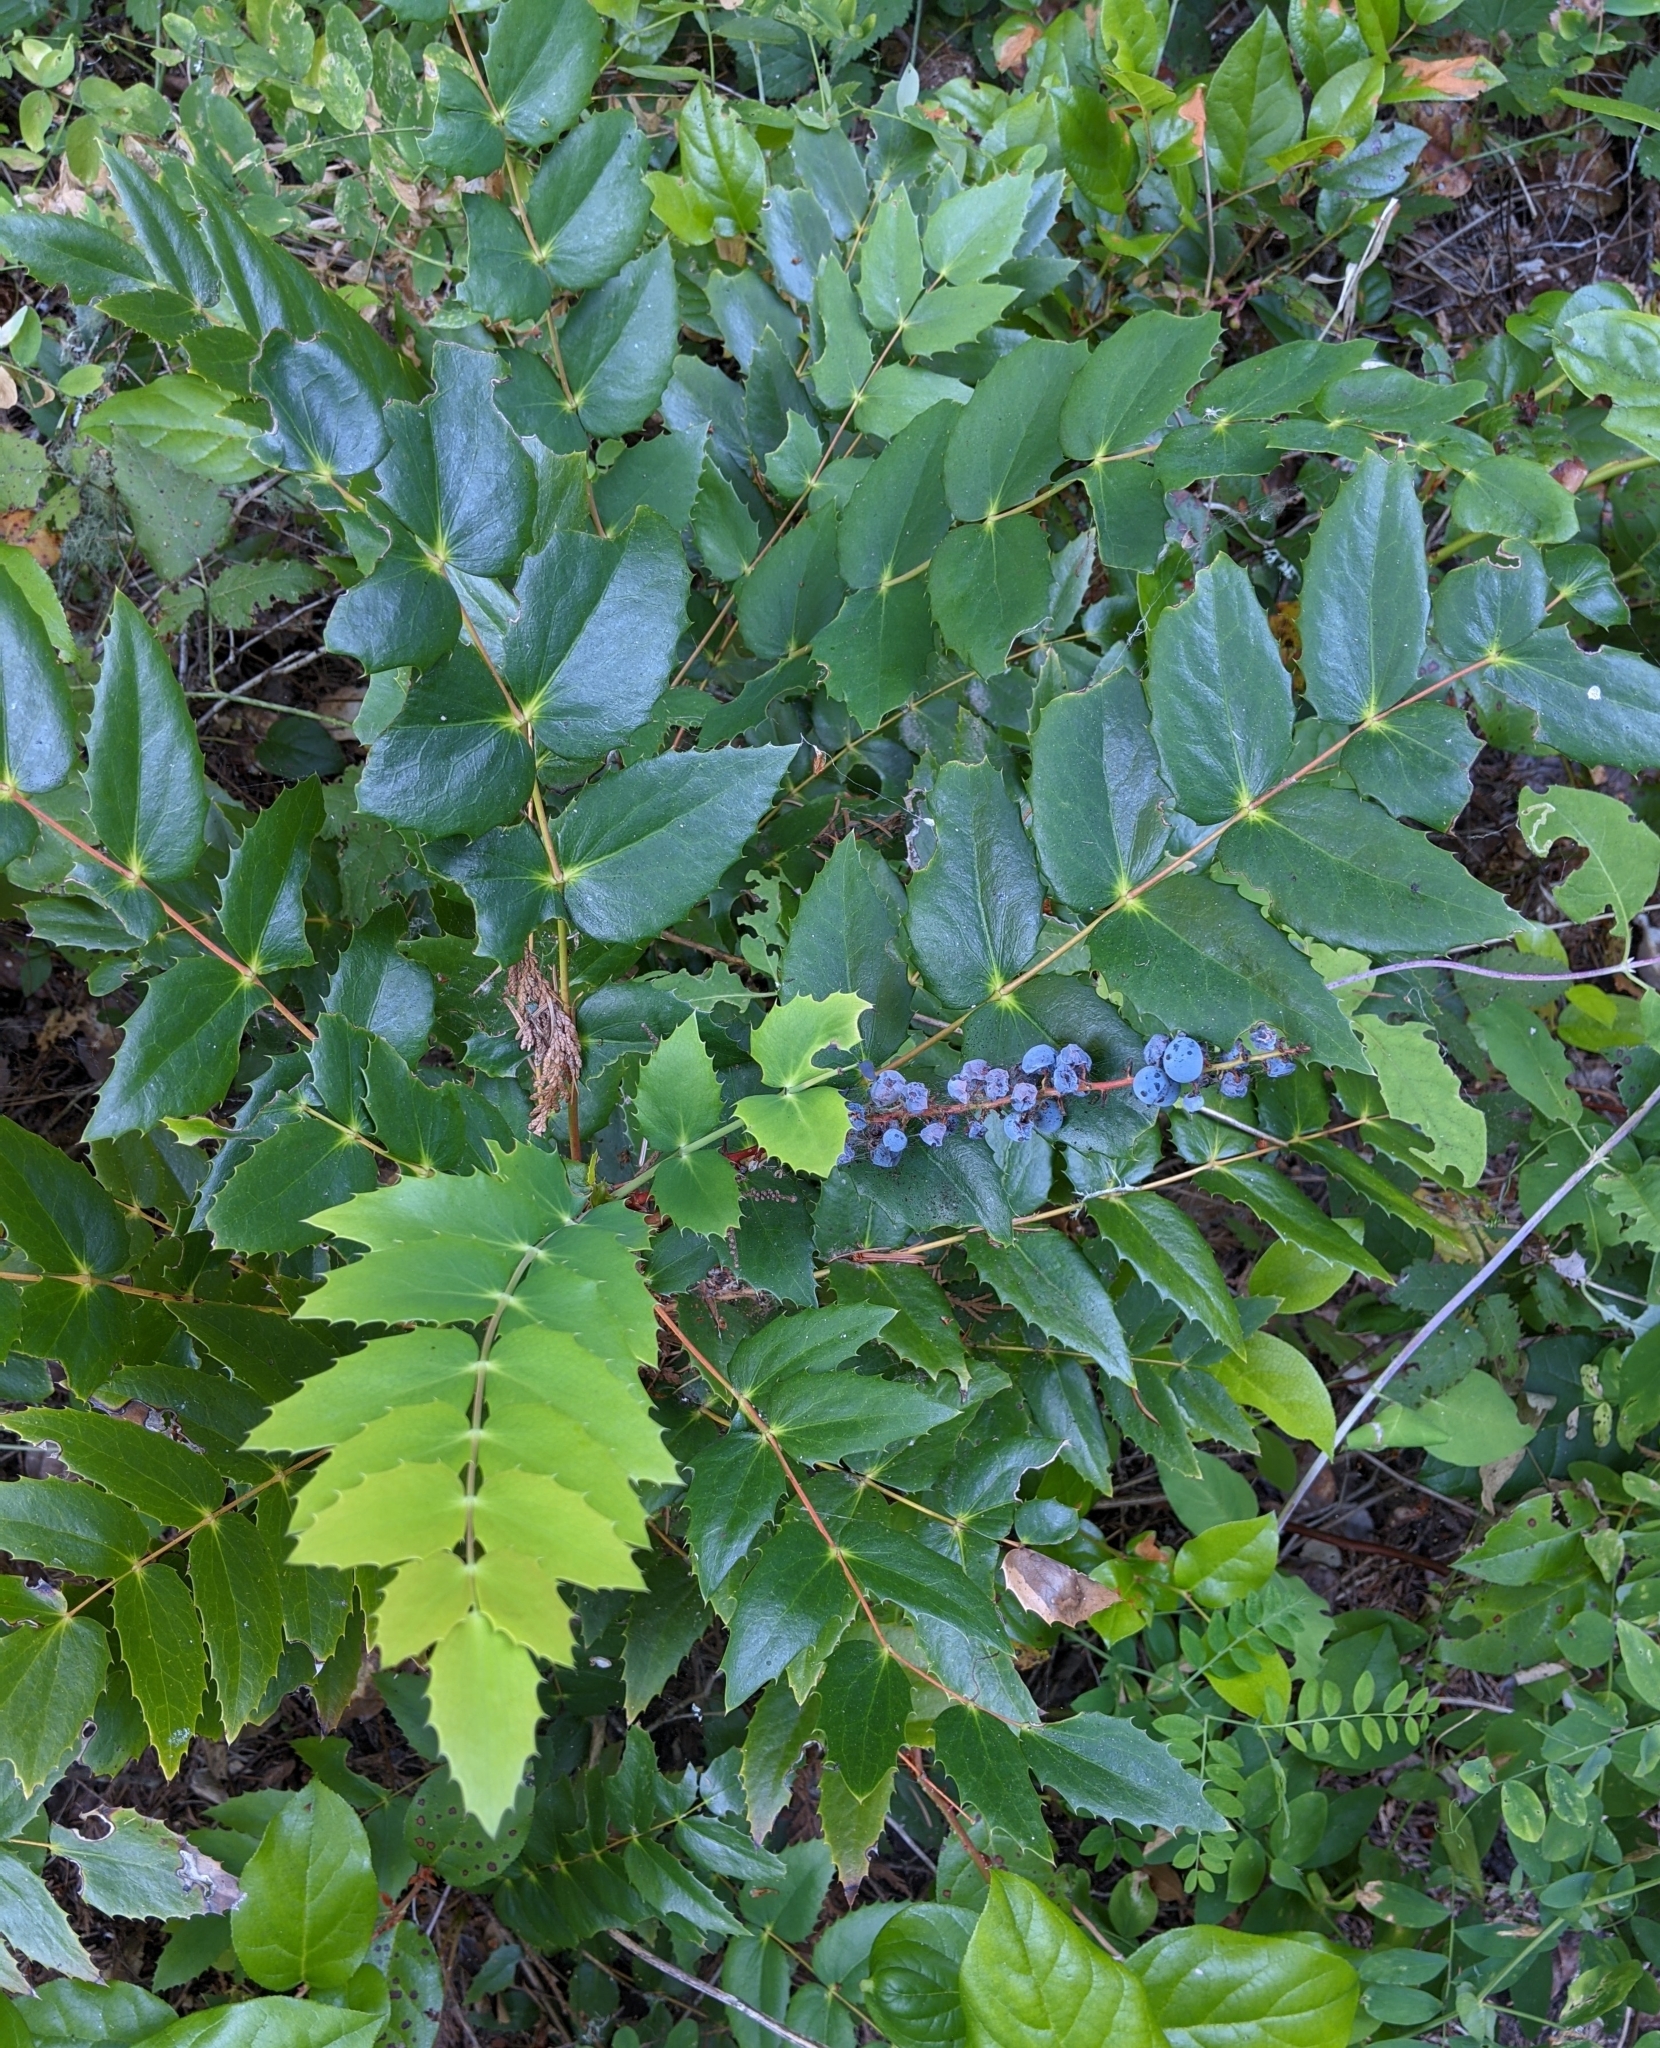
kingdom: Plantae
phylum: Tracheophyta
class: Magnoliopsida
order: Ranunculales
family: Berberidaceae
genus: Mahonia
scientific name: Mahonia nervosa
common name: Cascade oregon-grape
